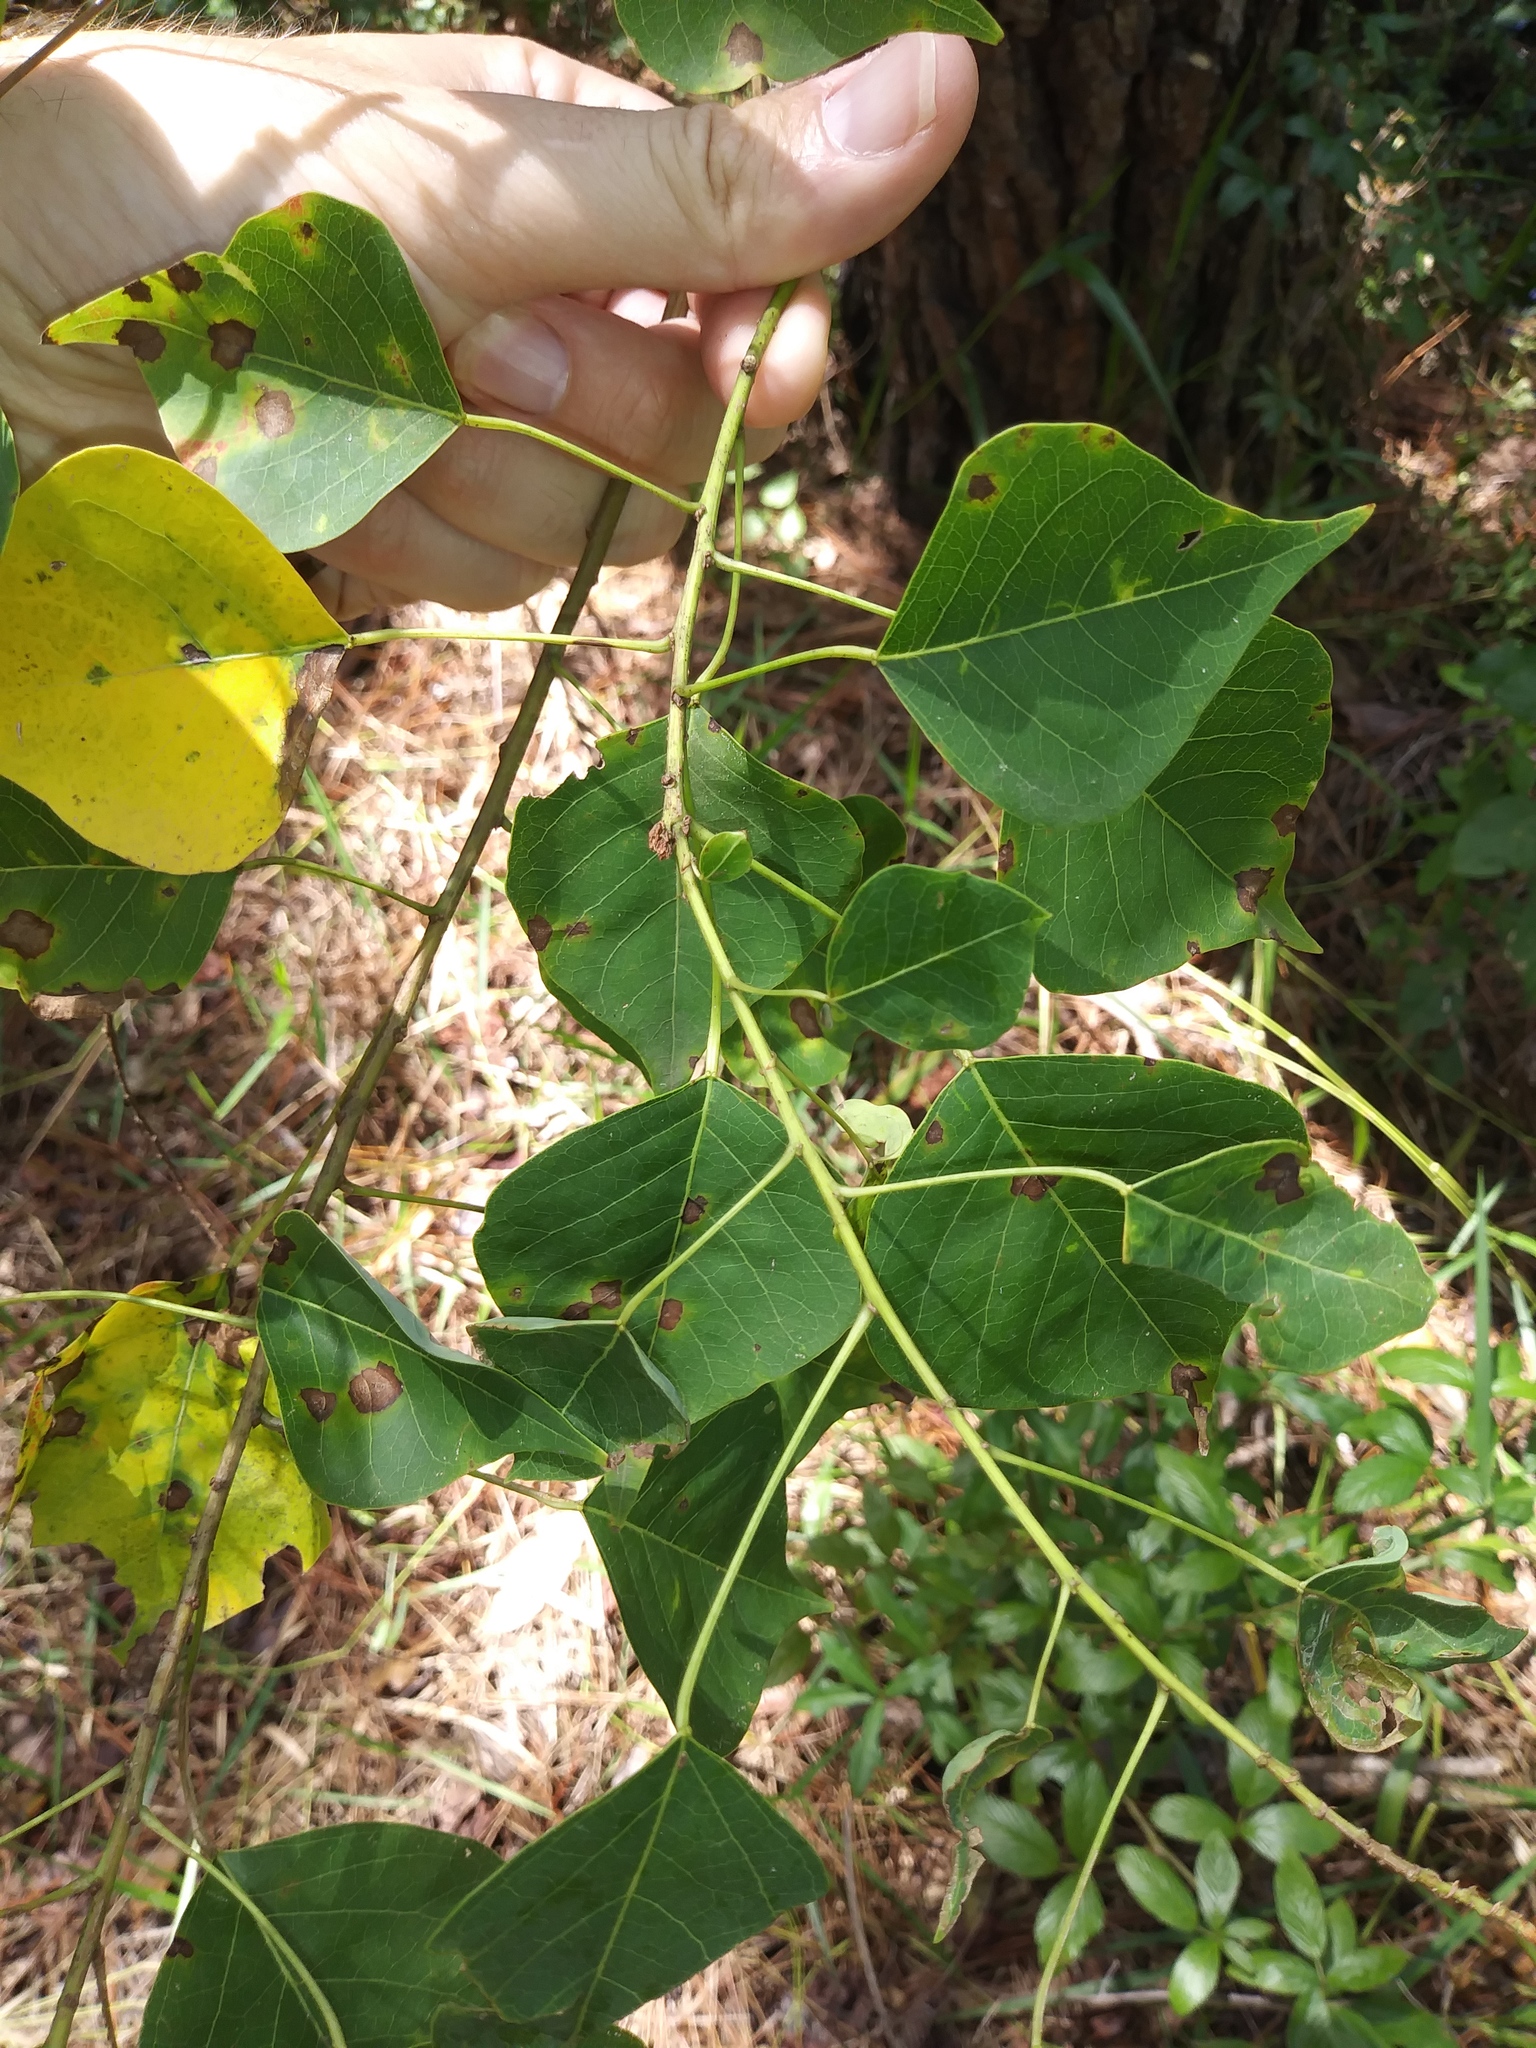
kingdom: Plantae
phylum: Tracheophyta
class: Magnoliopsida
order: Malpighiales
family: Euphorbiaceae
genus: Triadica
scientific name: Triadica sebifera
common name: Chinese tallow
